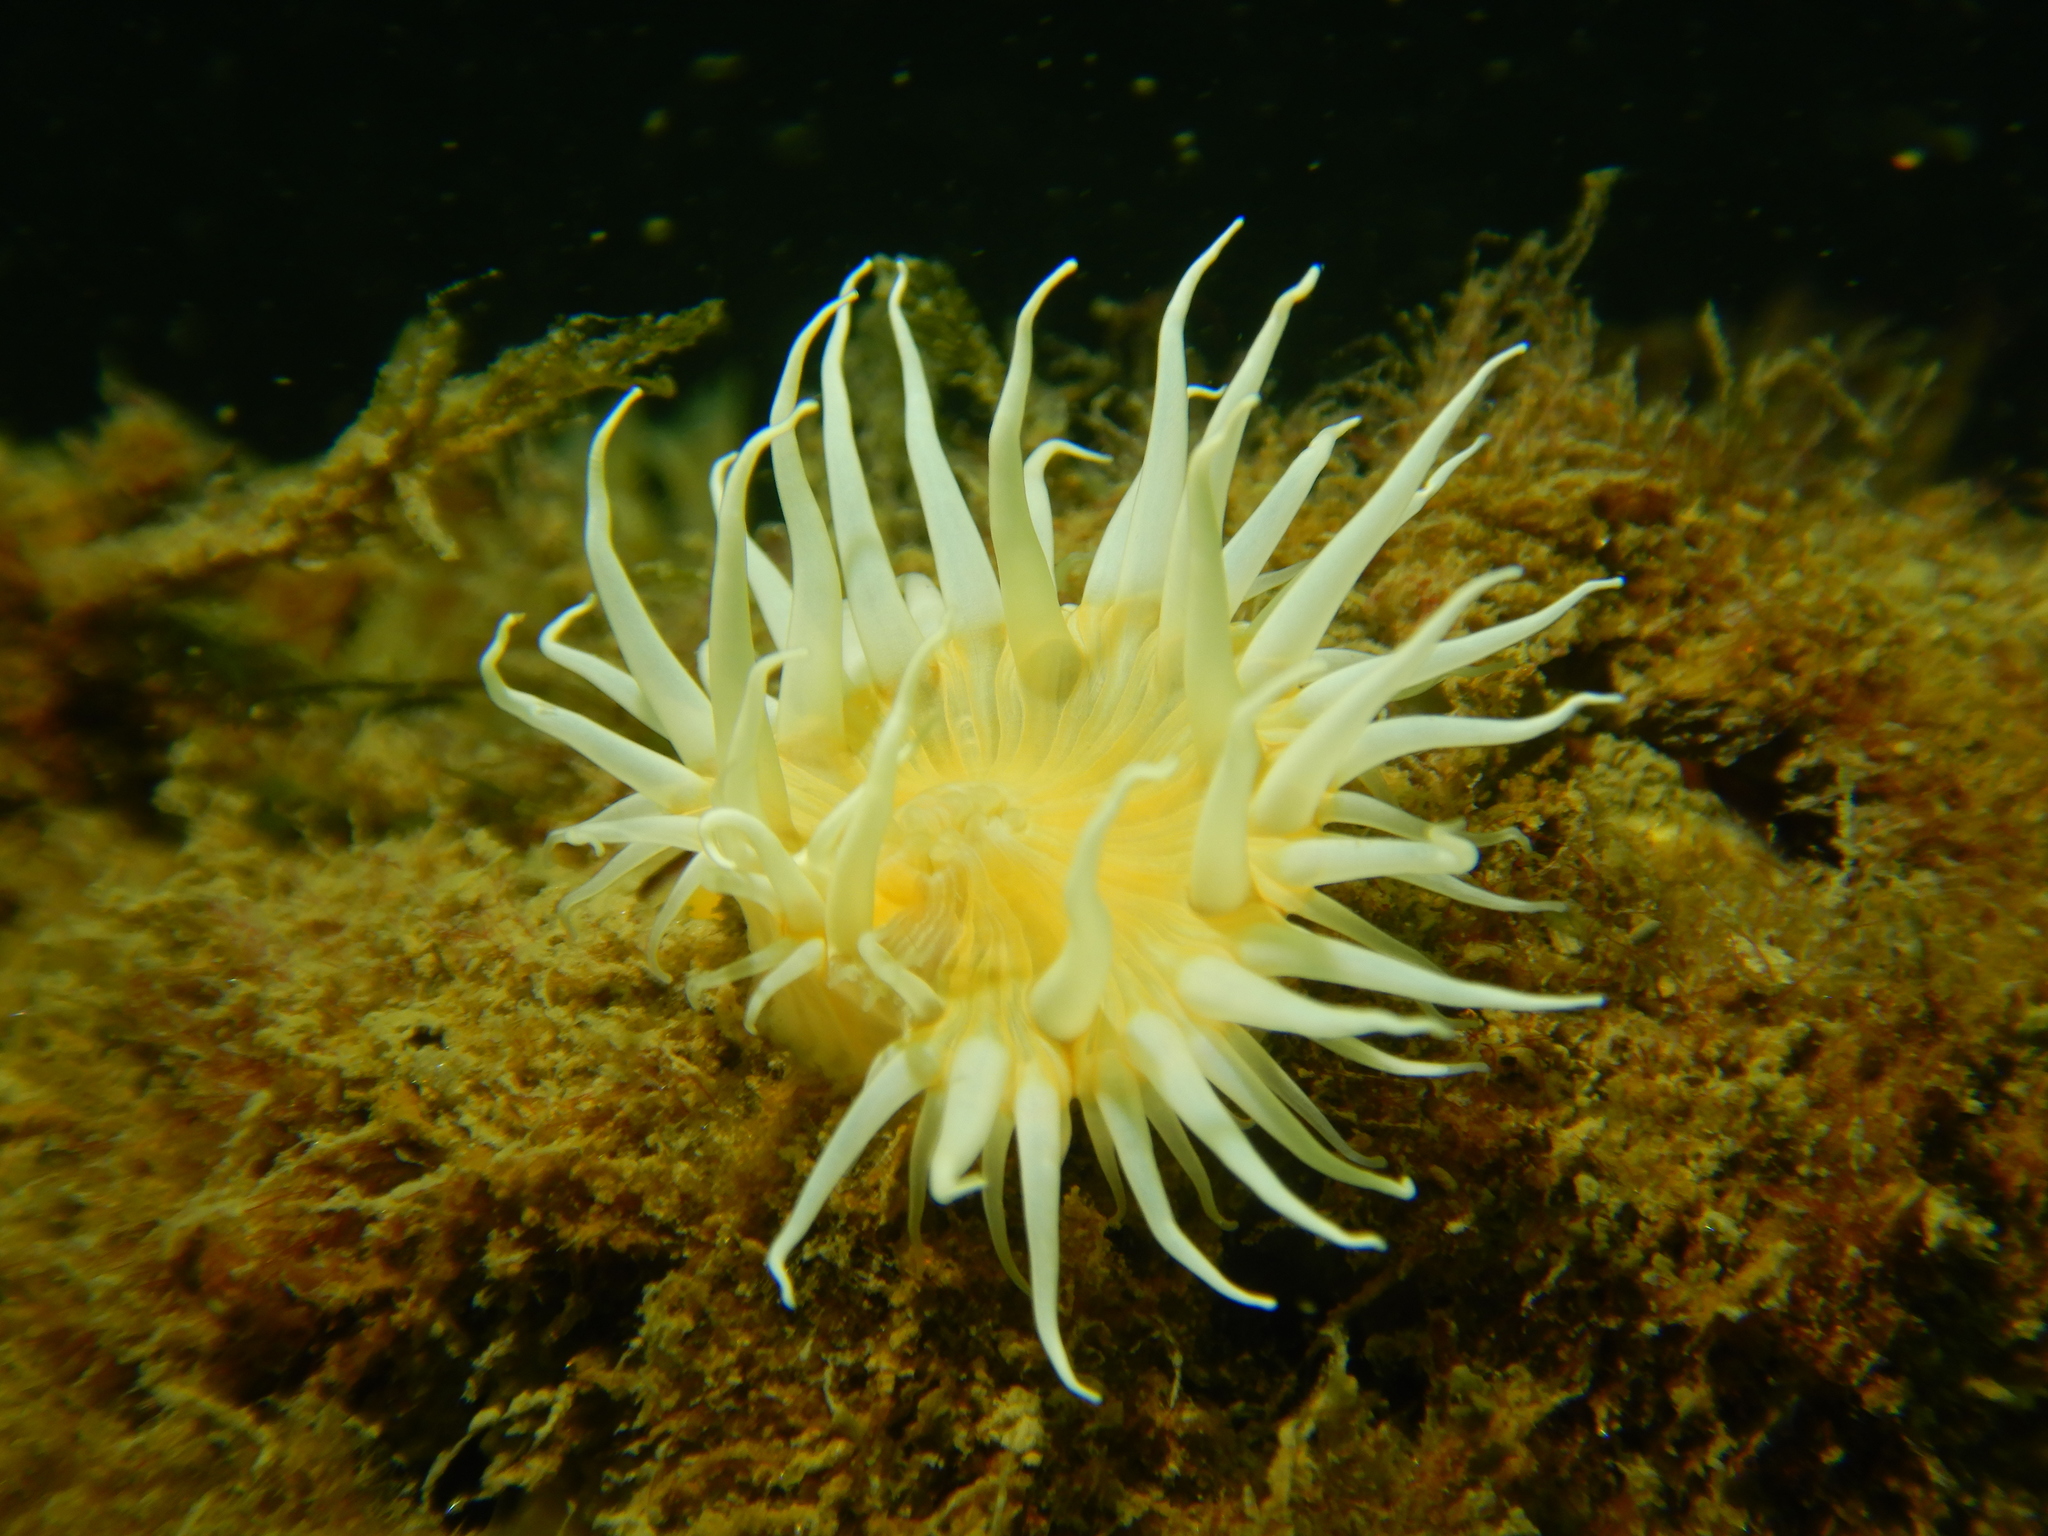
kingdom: Animalia
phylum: Cnidaria
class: Anthozoa
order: Actiniaria
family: Sagartiidae
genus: Anthothoe
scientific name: Anthothoe chilensis
